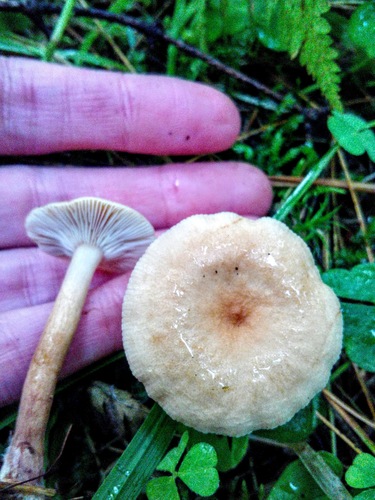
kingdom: Fungi
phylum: Basidiomycota
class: Agaricomycetes
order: Russulales
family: Russulaceae
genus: Lactarius
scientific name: Lactarius
